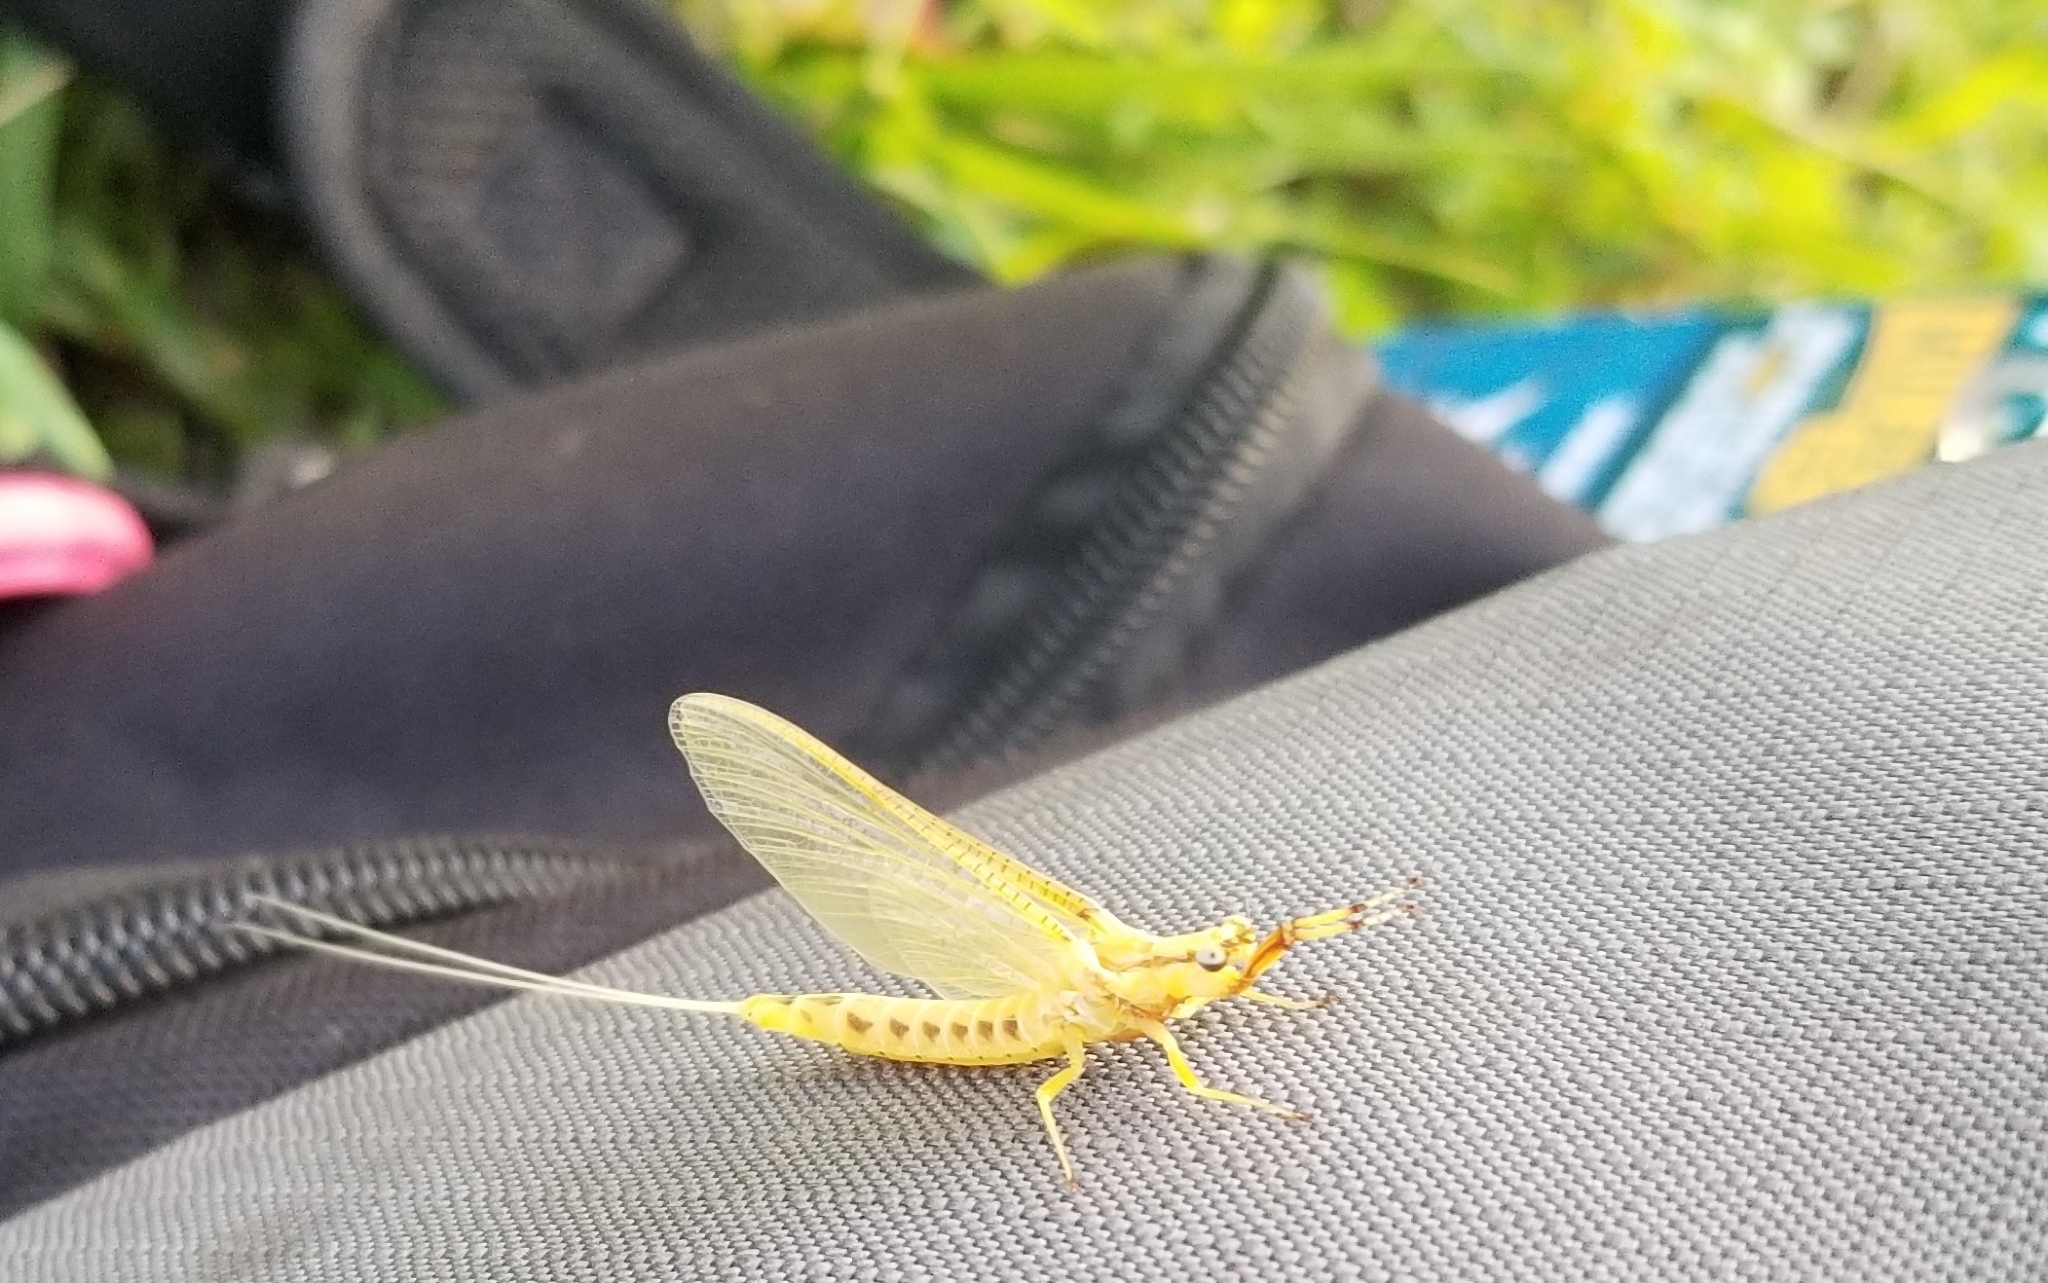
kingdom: Animalia
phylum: Arthropoda
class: Insecta
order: Ephemeroptera
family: Ephemeridae
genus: Hexagenia
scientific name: Hexagenia limbata
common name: Giant mayfly
